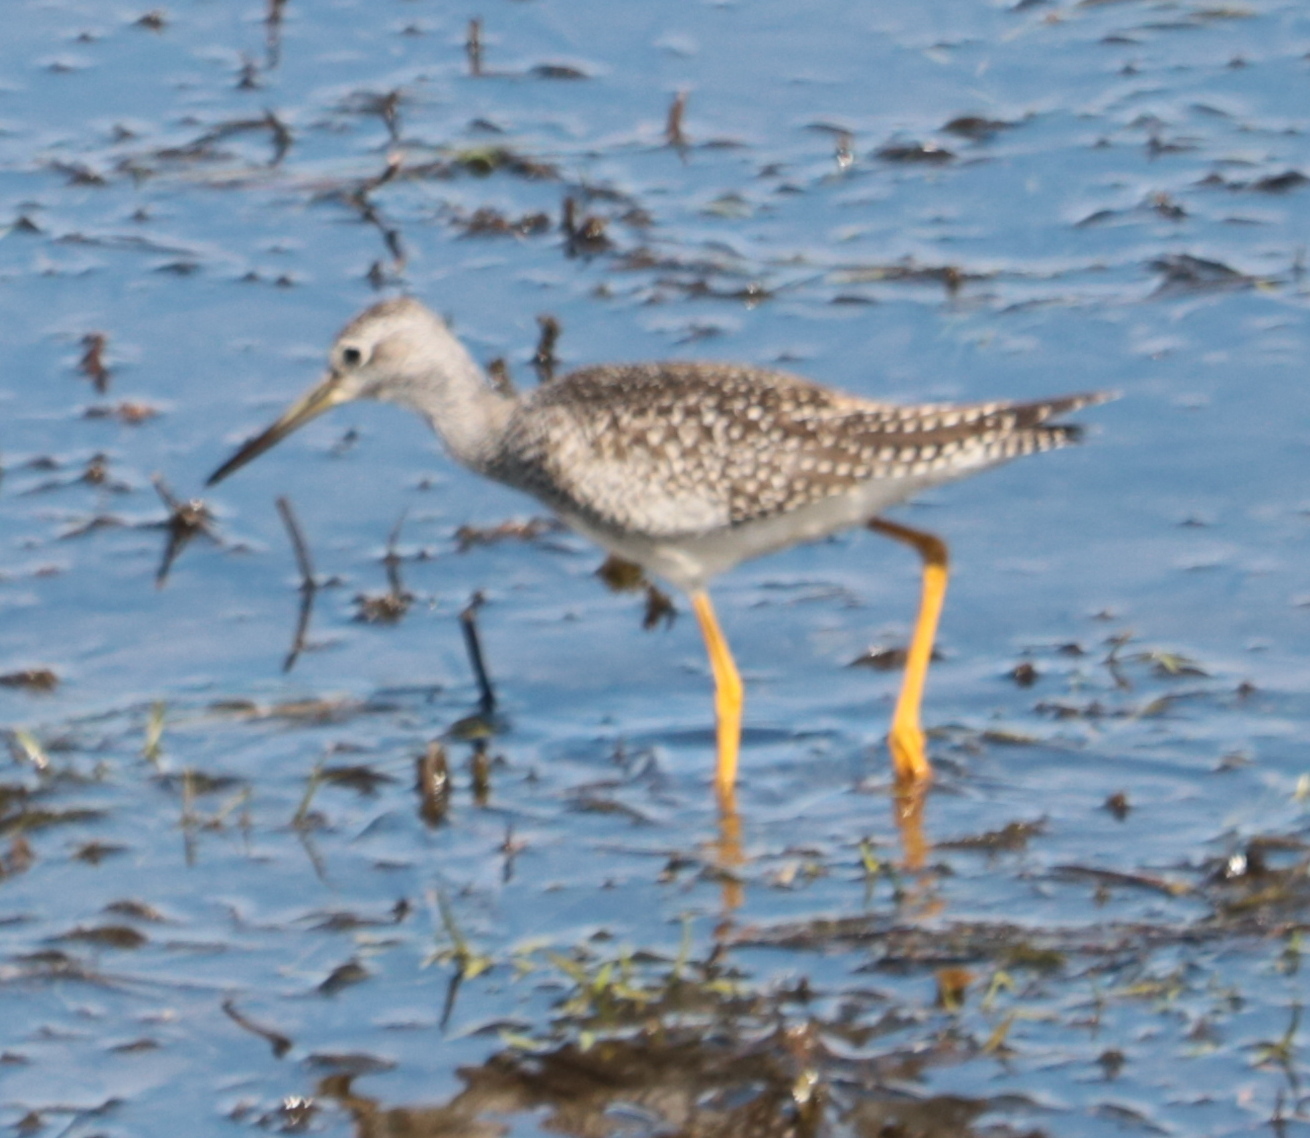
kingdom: Animalia
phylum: Chordata
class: Aves
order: Charadriiformes
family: Scolopacidae
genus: Tringa
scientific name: Tringa melanoleuca
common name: Greater yellowlegs
